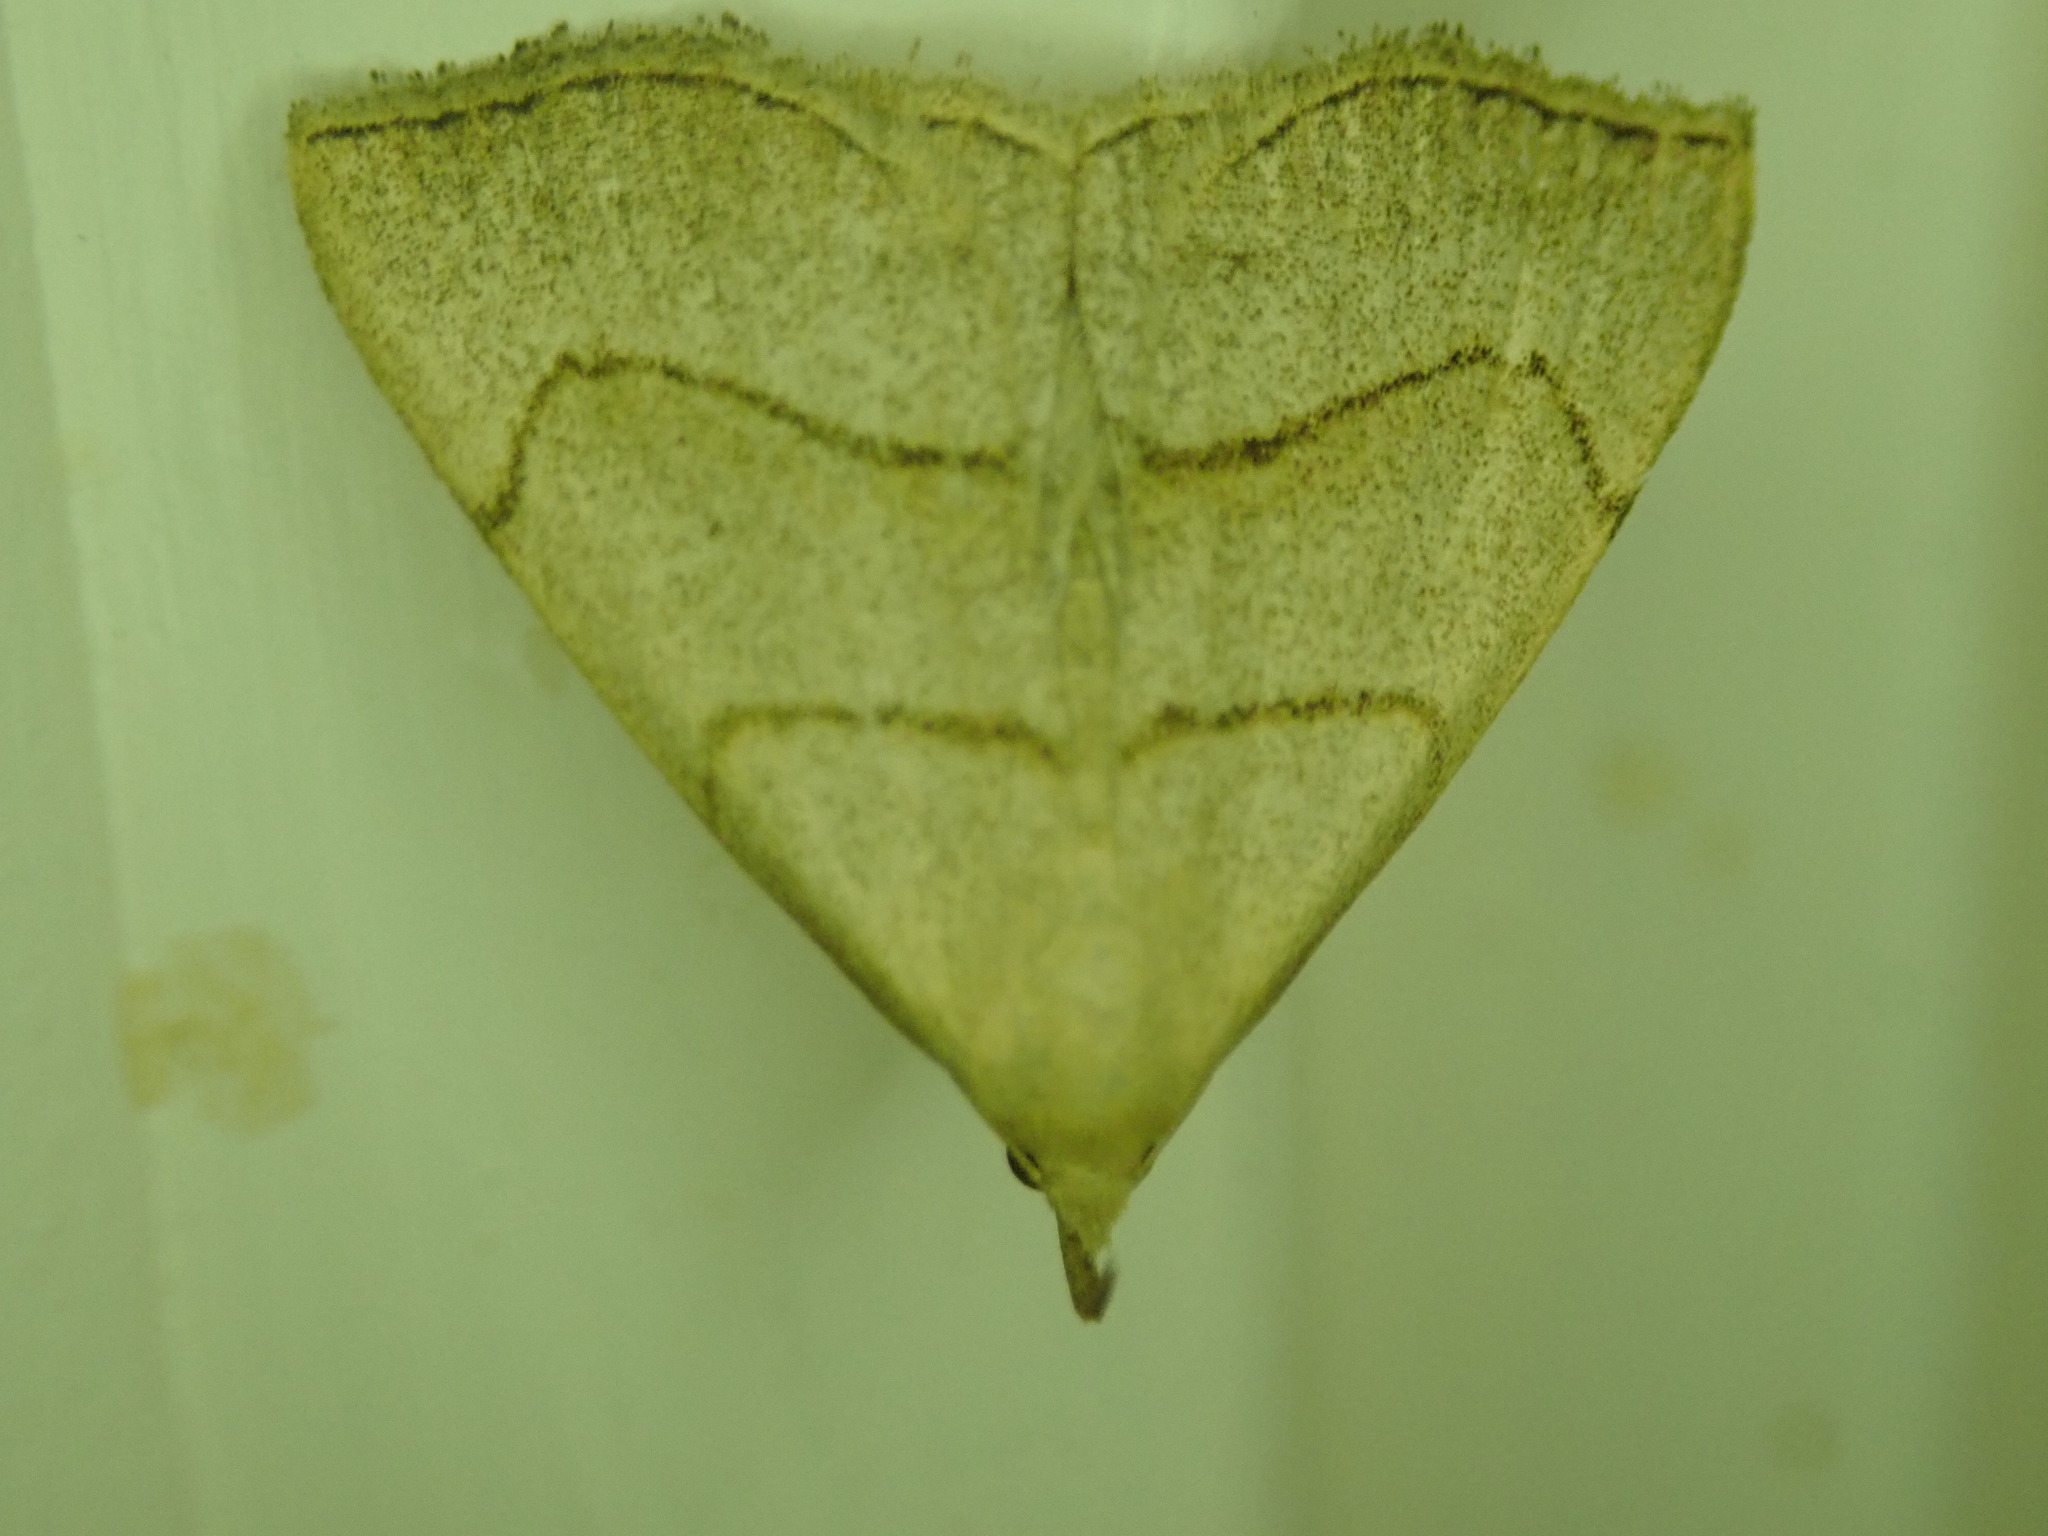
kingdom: Animalia
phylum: Arthropoda
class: Insecta
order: Lepidoptera
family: Erebidae
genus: Macrochilo
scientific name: Macrochilo litophora
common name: Brown-lined owlet
